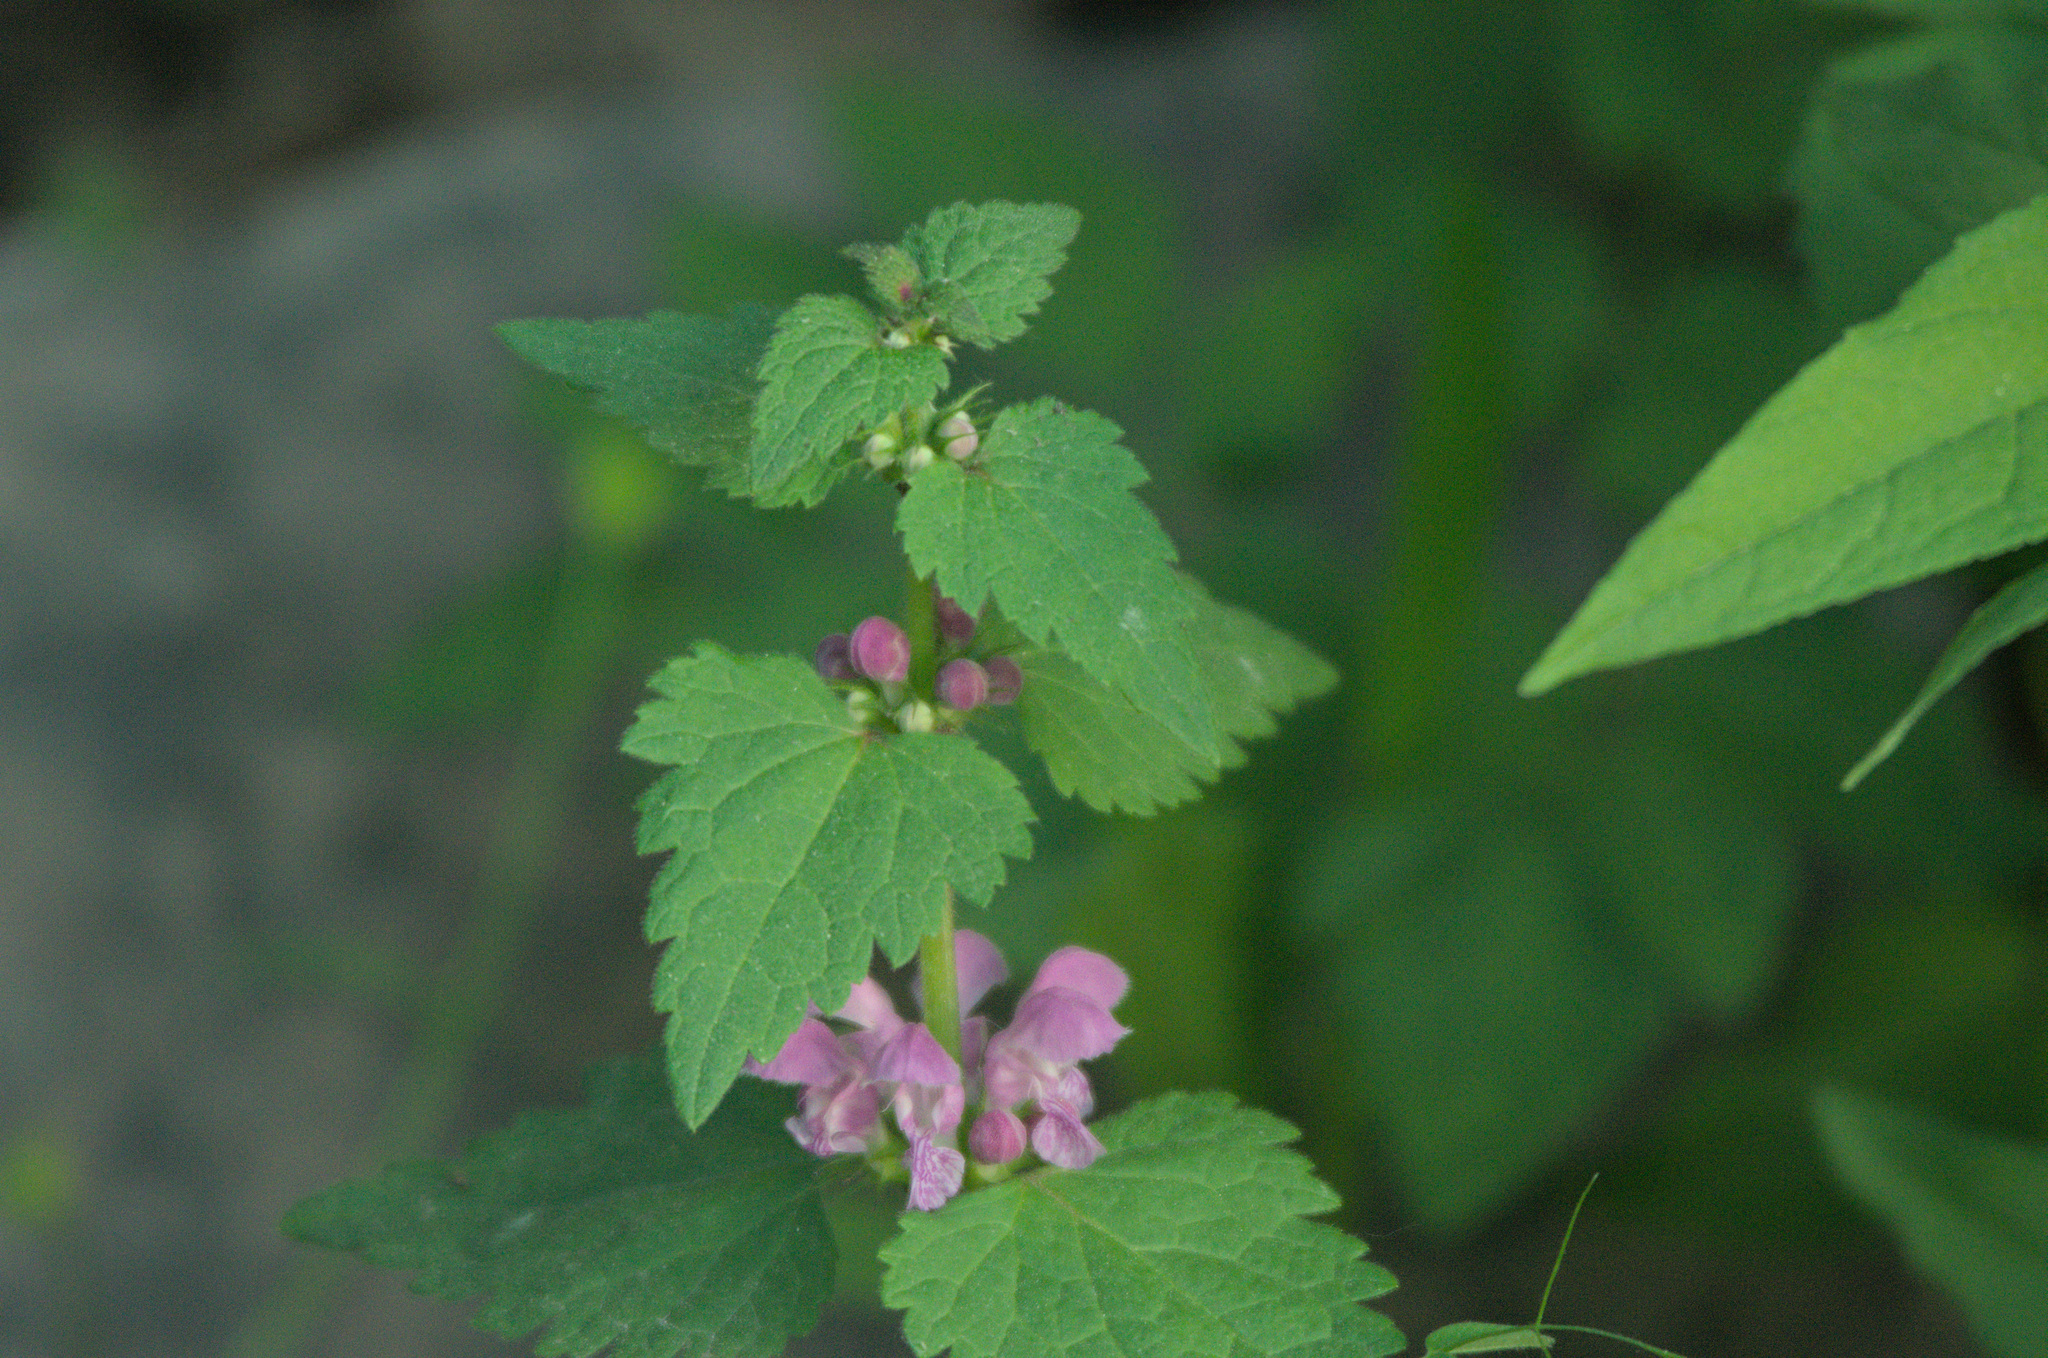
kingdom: Plantae
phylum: Tracheophyta
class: Magnoliopsida
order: Lamiales
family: Lamiaceae
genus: Lamium
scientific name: Lamium maculatum
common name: Spotted dead-nettle
